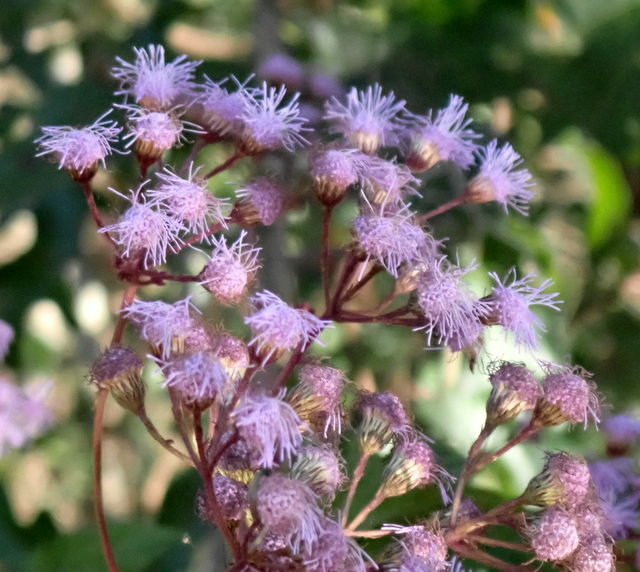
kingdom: Plantae
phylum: Tracheophyta
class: Magnoliopsida
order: Asterales
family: Asteraceae
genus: Conoclinium
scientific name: Conoclinium coelestinum
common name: Blue mistflower
